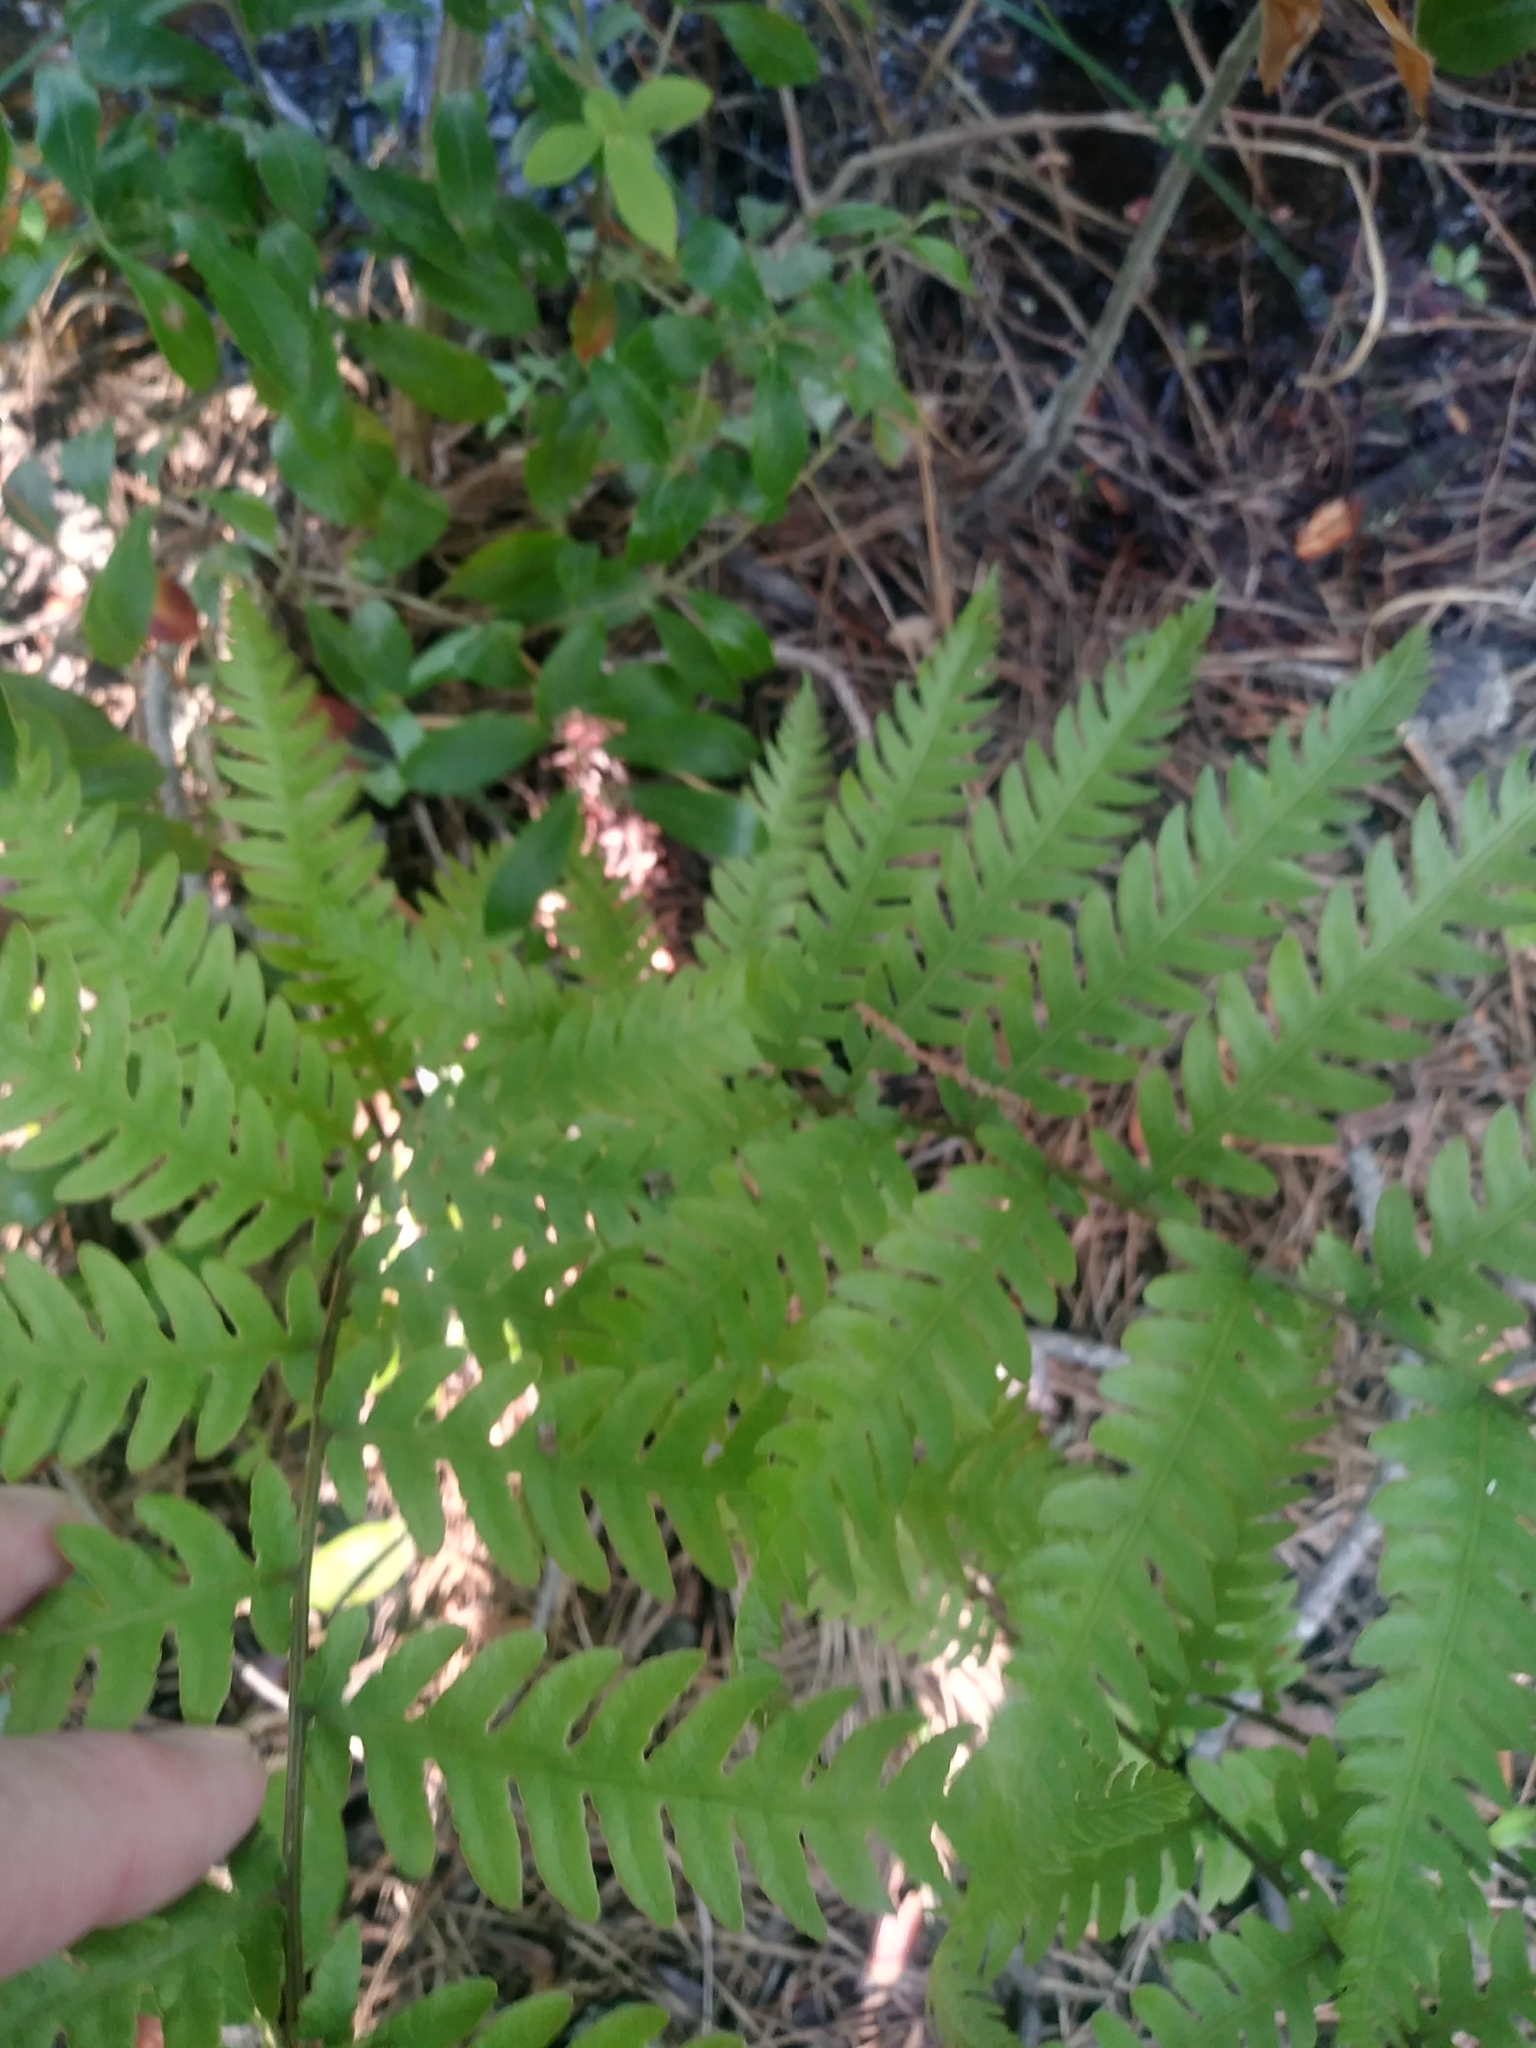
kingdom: Plantae
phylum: Tracheophyta
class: Polypodiopsida
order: Polypodiales
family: Blechnaceae
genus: Anchistea
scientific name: Anchistea virginica
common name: Virginia chain fern
